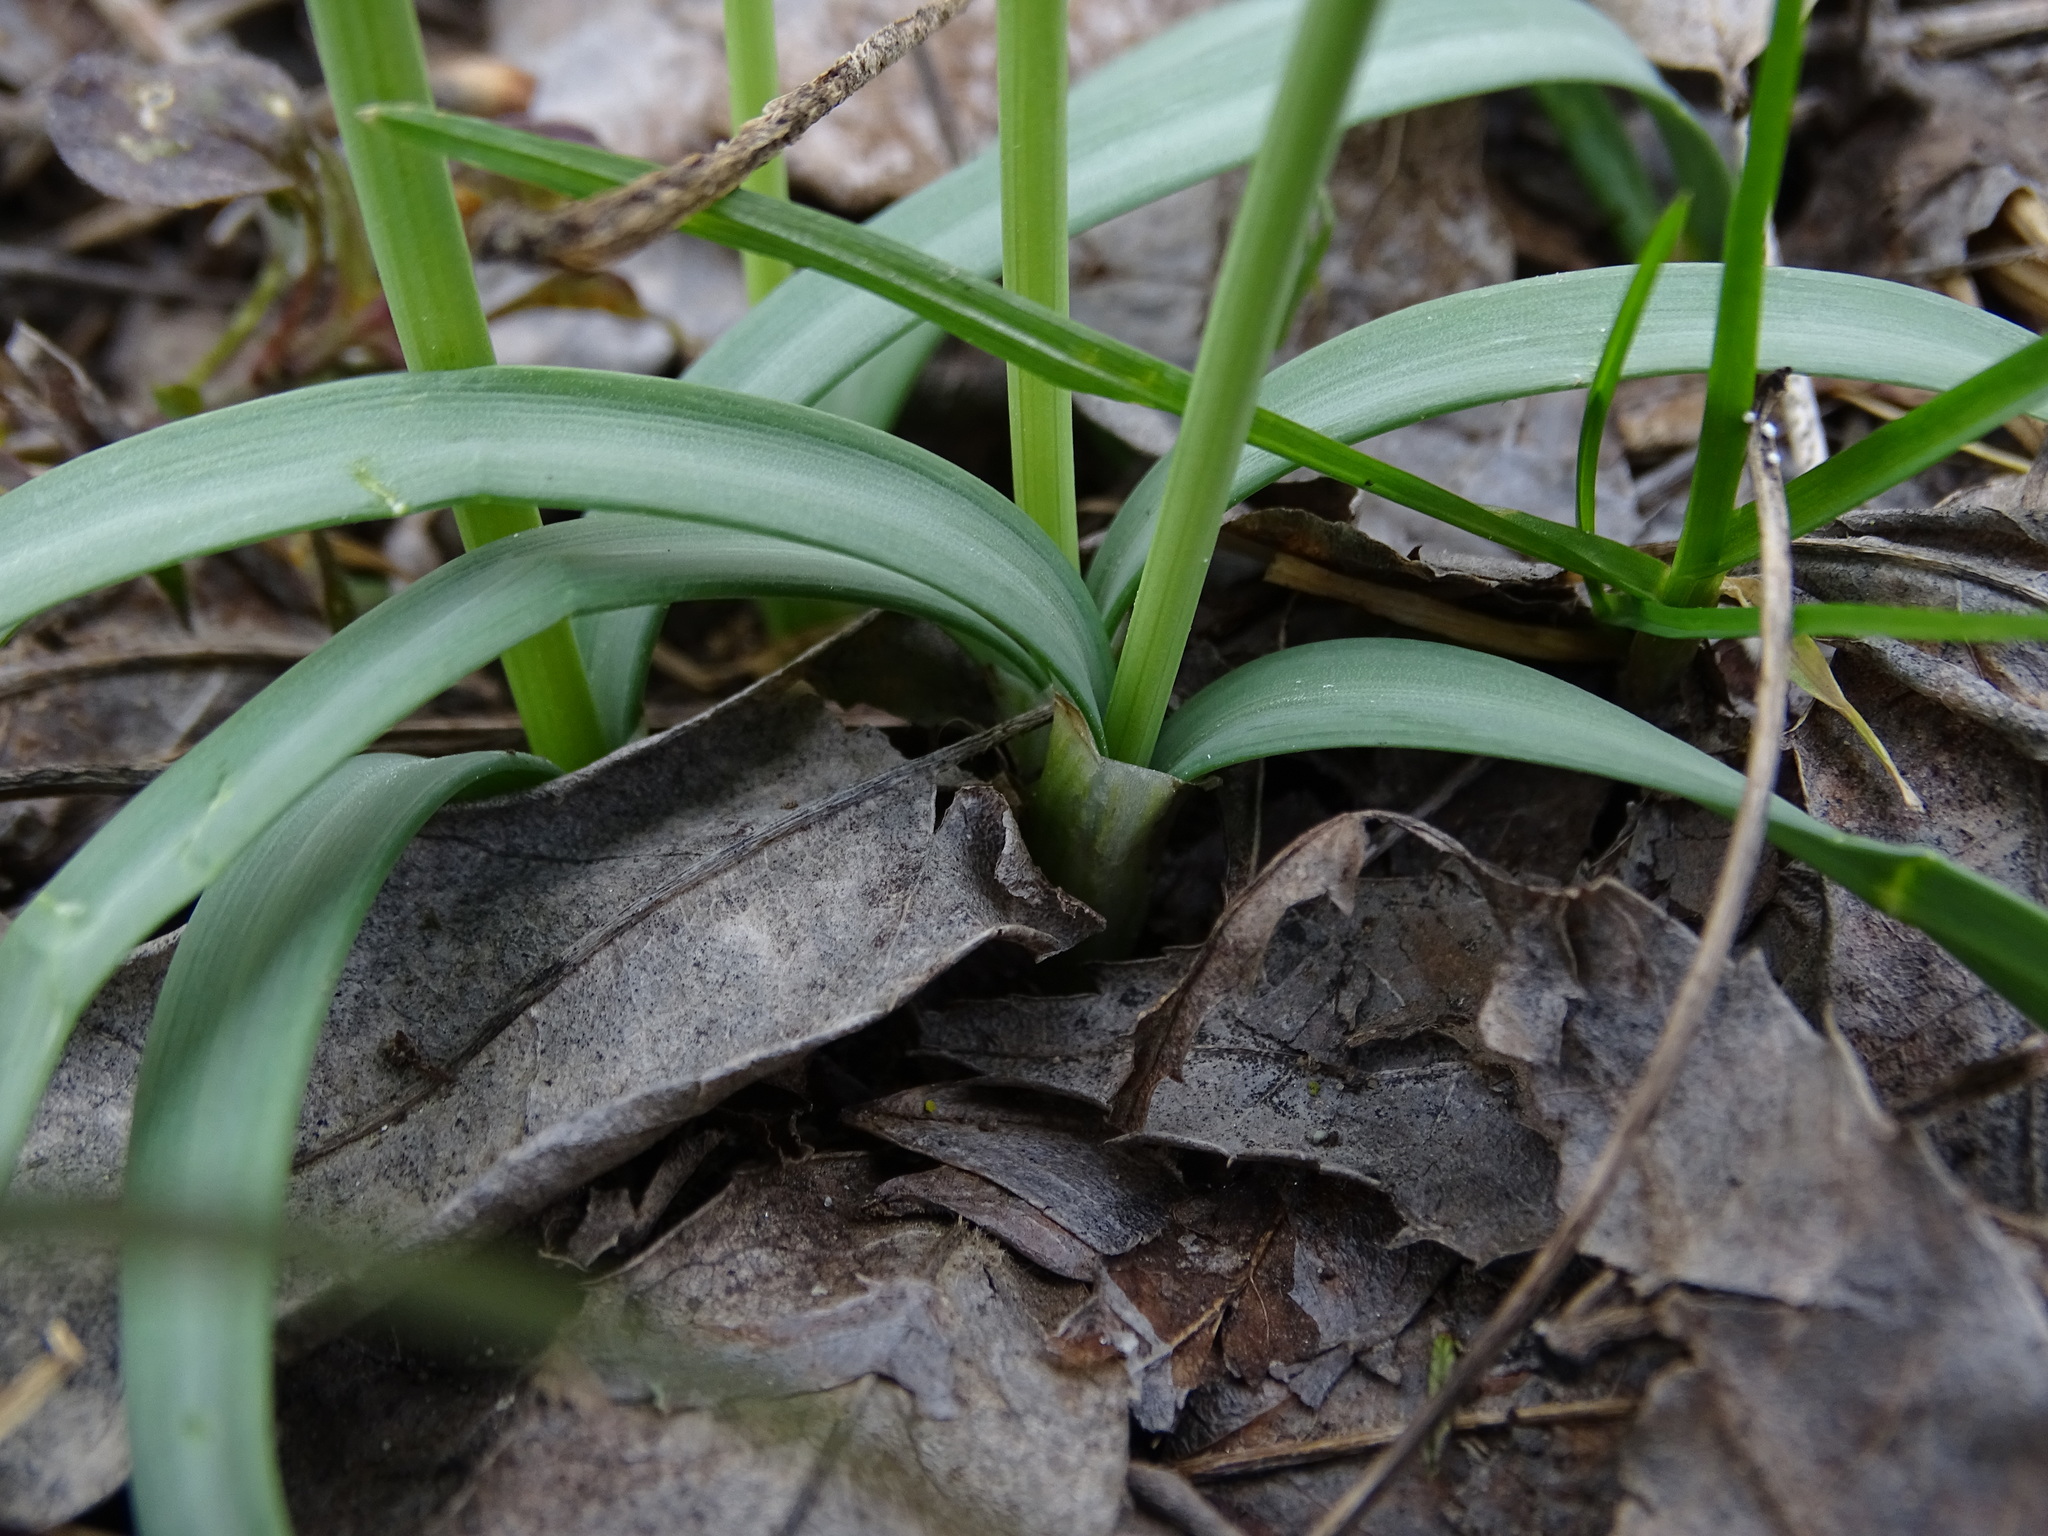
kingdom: Plantae
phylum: Tracheophyta
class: Liliopsida
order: Asparagales
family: Amaryllidaceae
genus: Galanthus
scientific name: Galanthus nivalis
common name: Snowdrop
